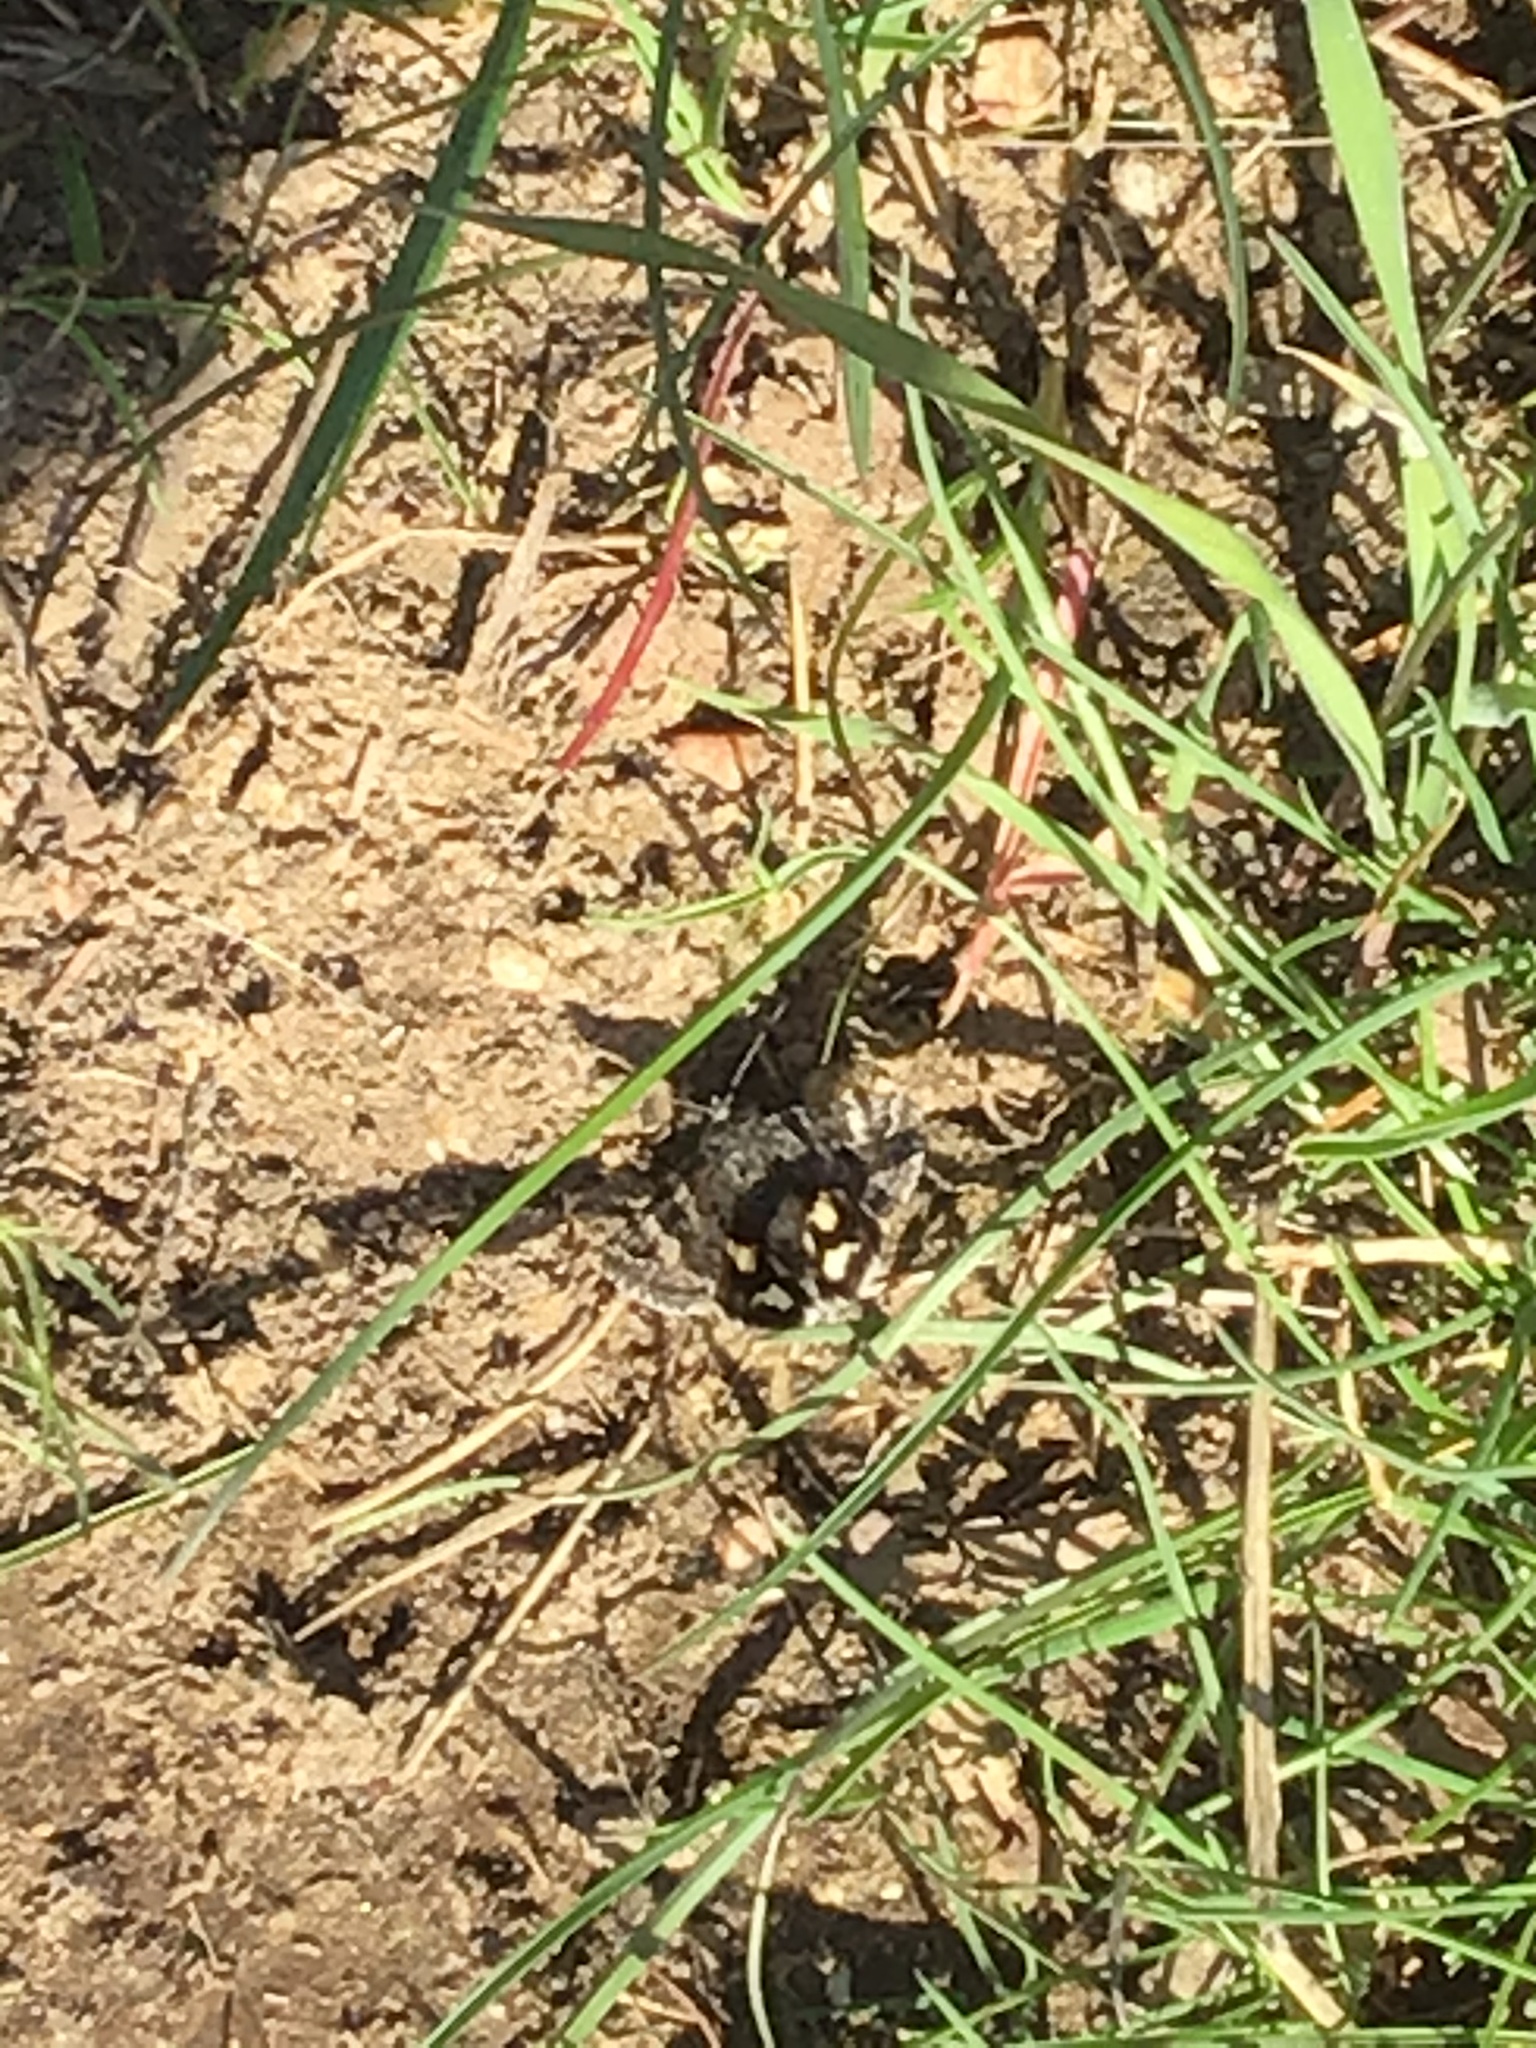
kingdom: Animalia
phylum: Arthropoda
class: Insecta
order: Lepidoptera
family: Erebidae
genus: Litocala
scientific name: Litocala sexsignata
